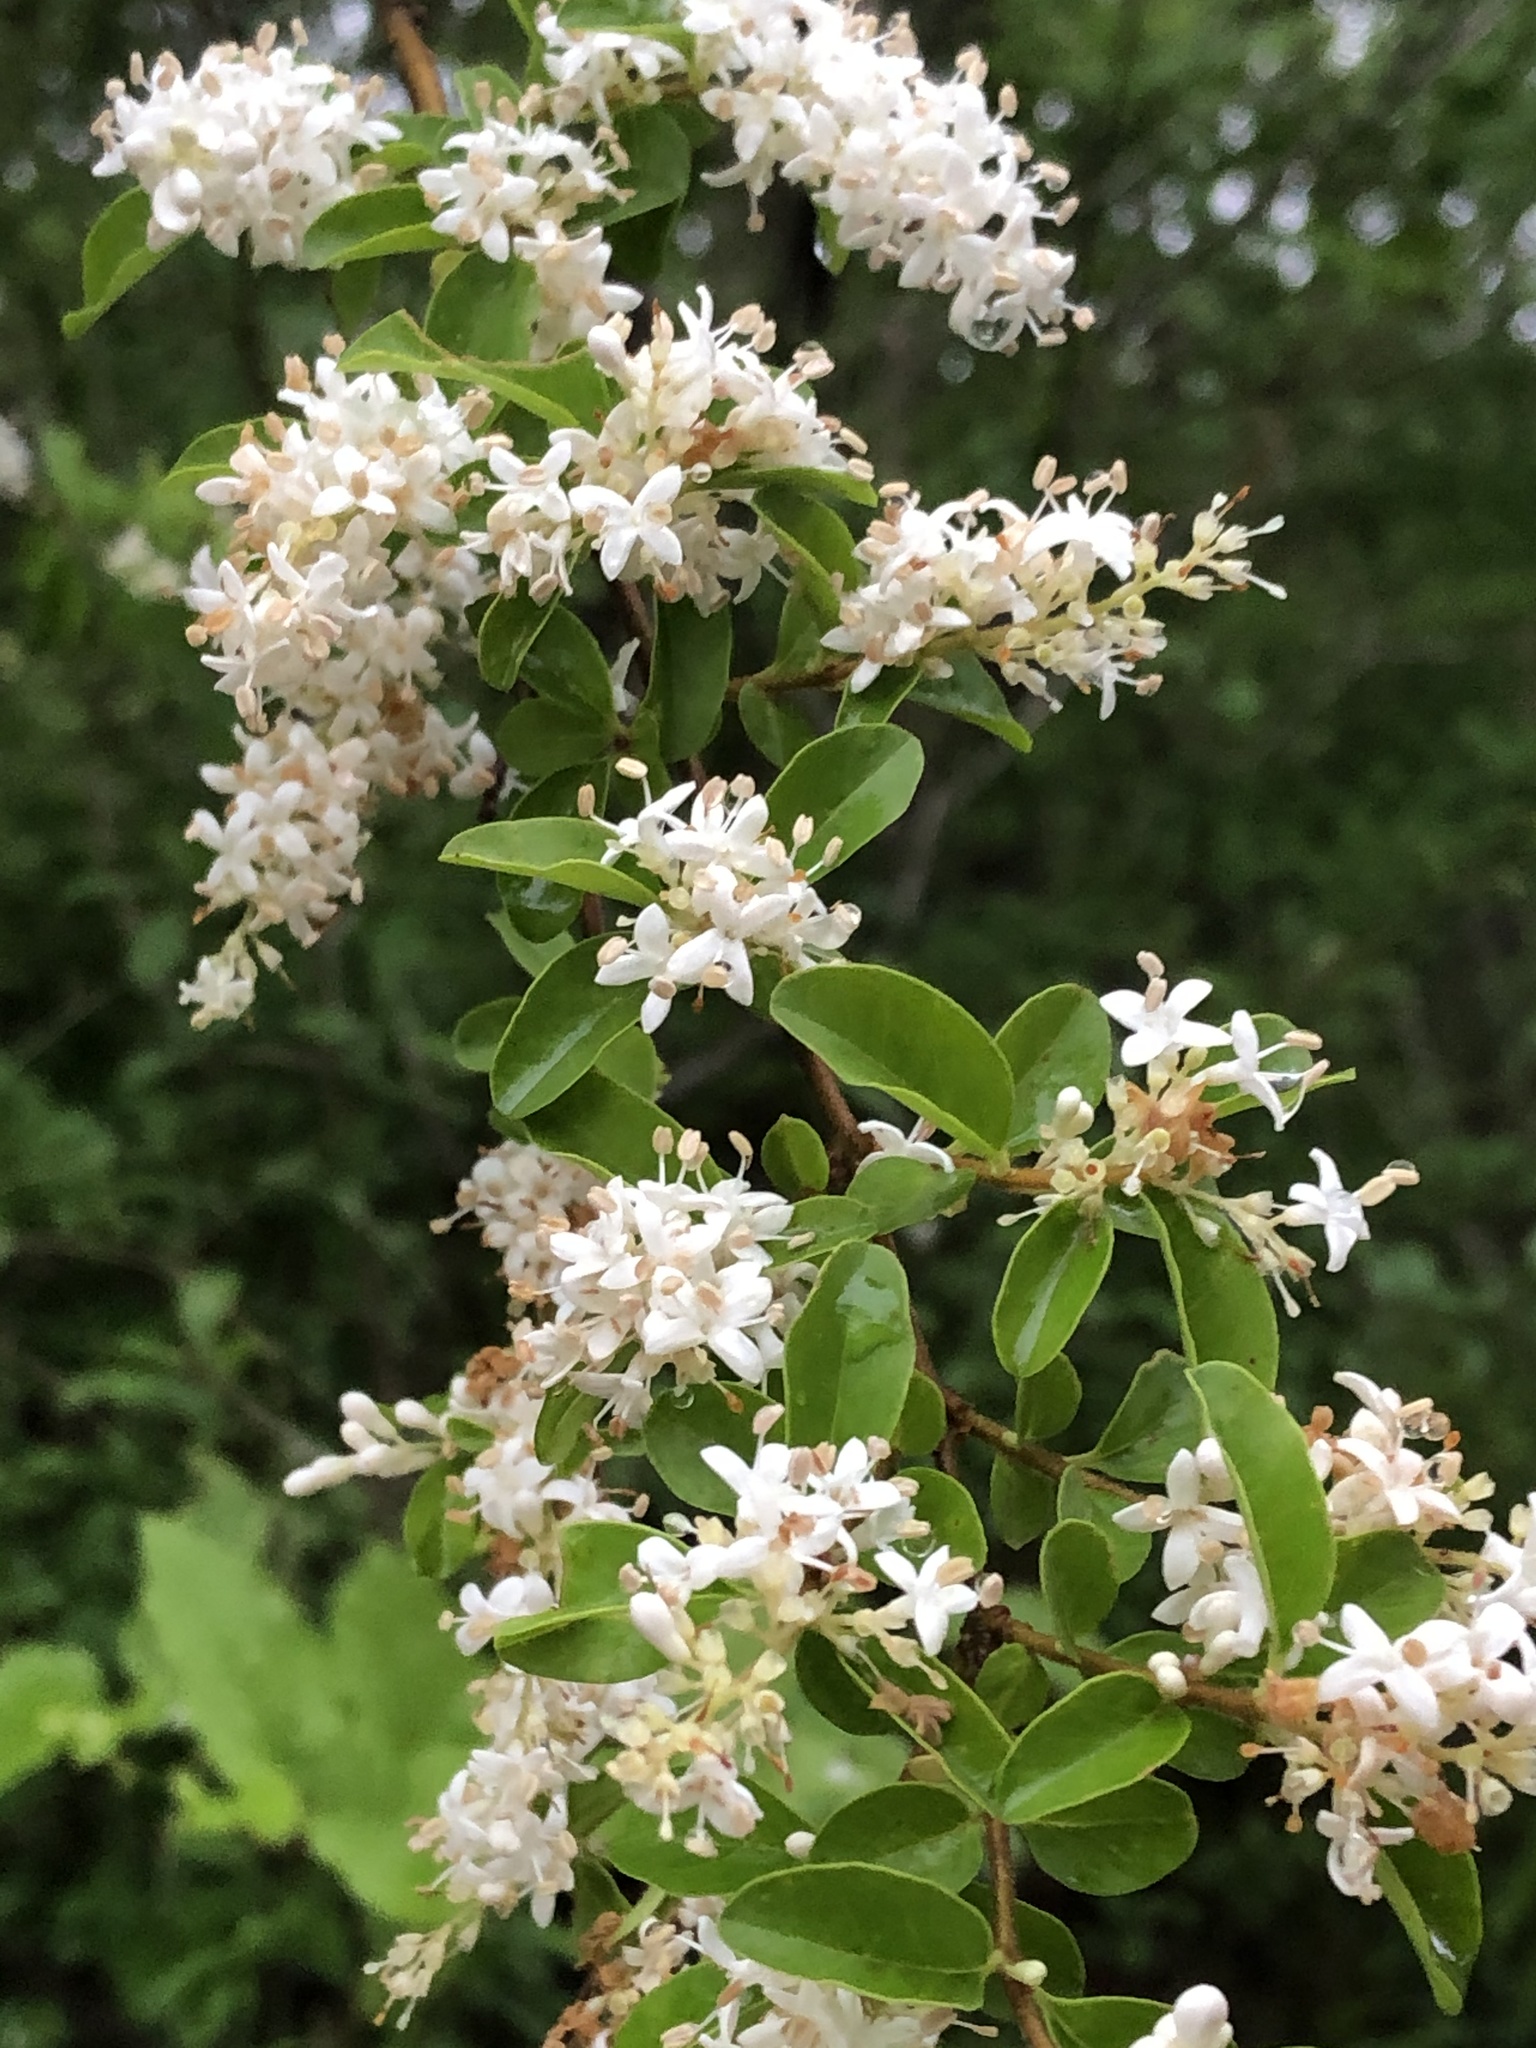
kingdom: Plantae
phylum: Tracheophyta
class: Magnoliopsida
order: Lamiales
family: Oleaceae
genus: Ligustrum
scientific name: Ligustrum sinense
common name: Chinese privet
